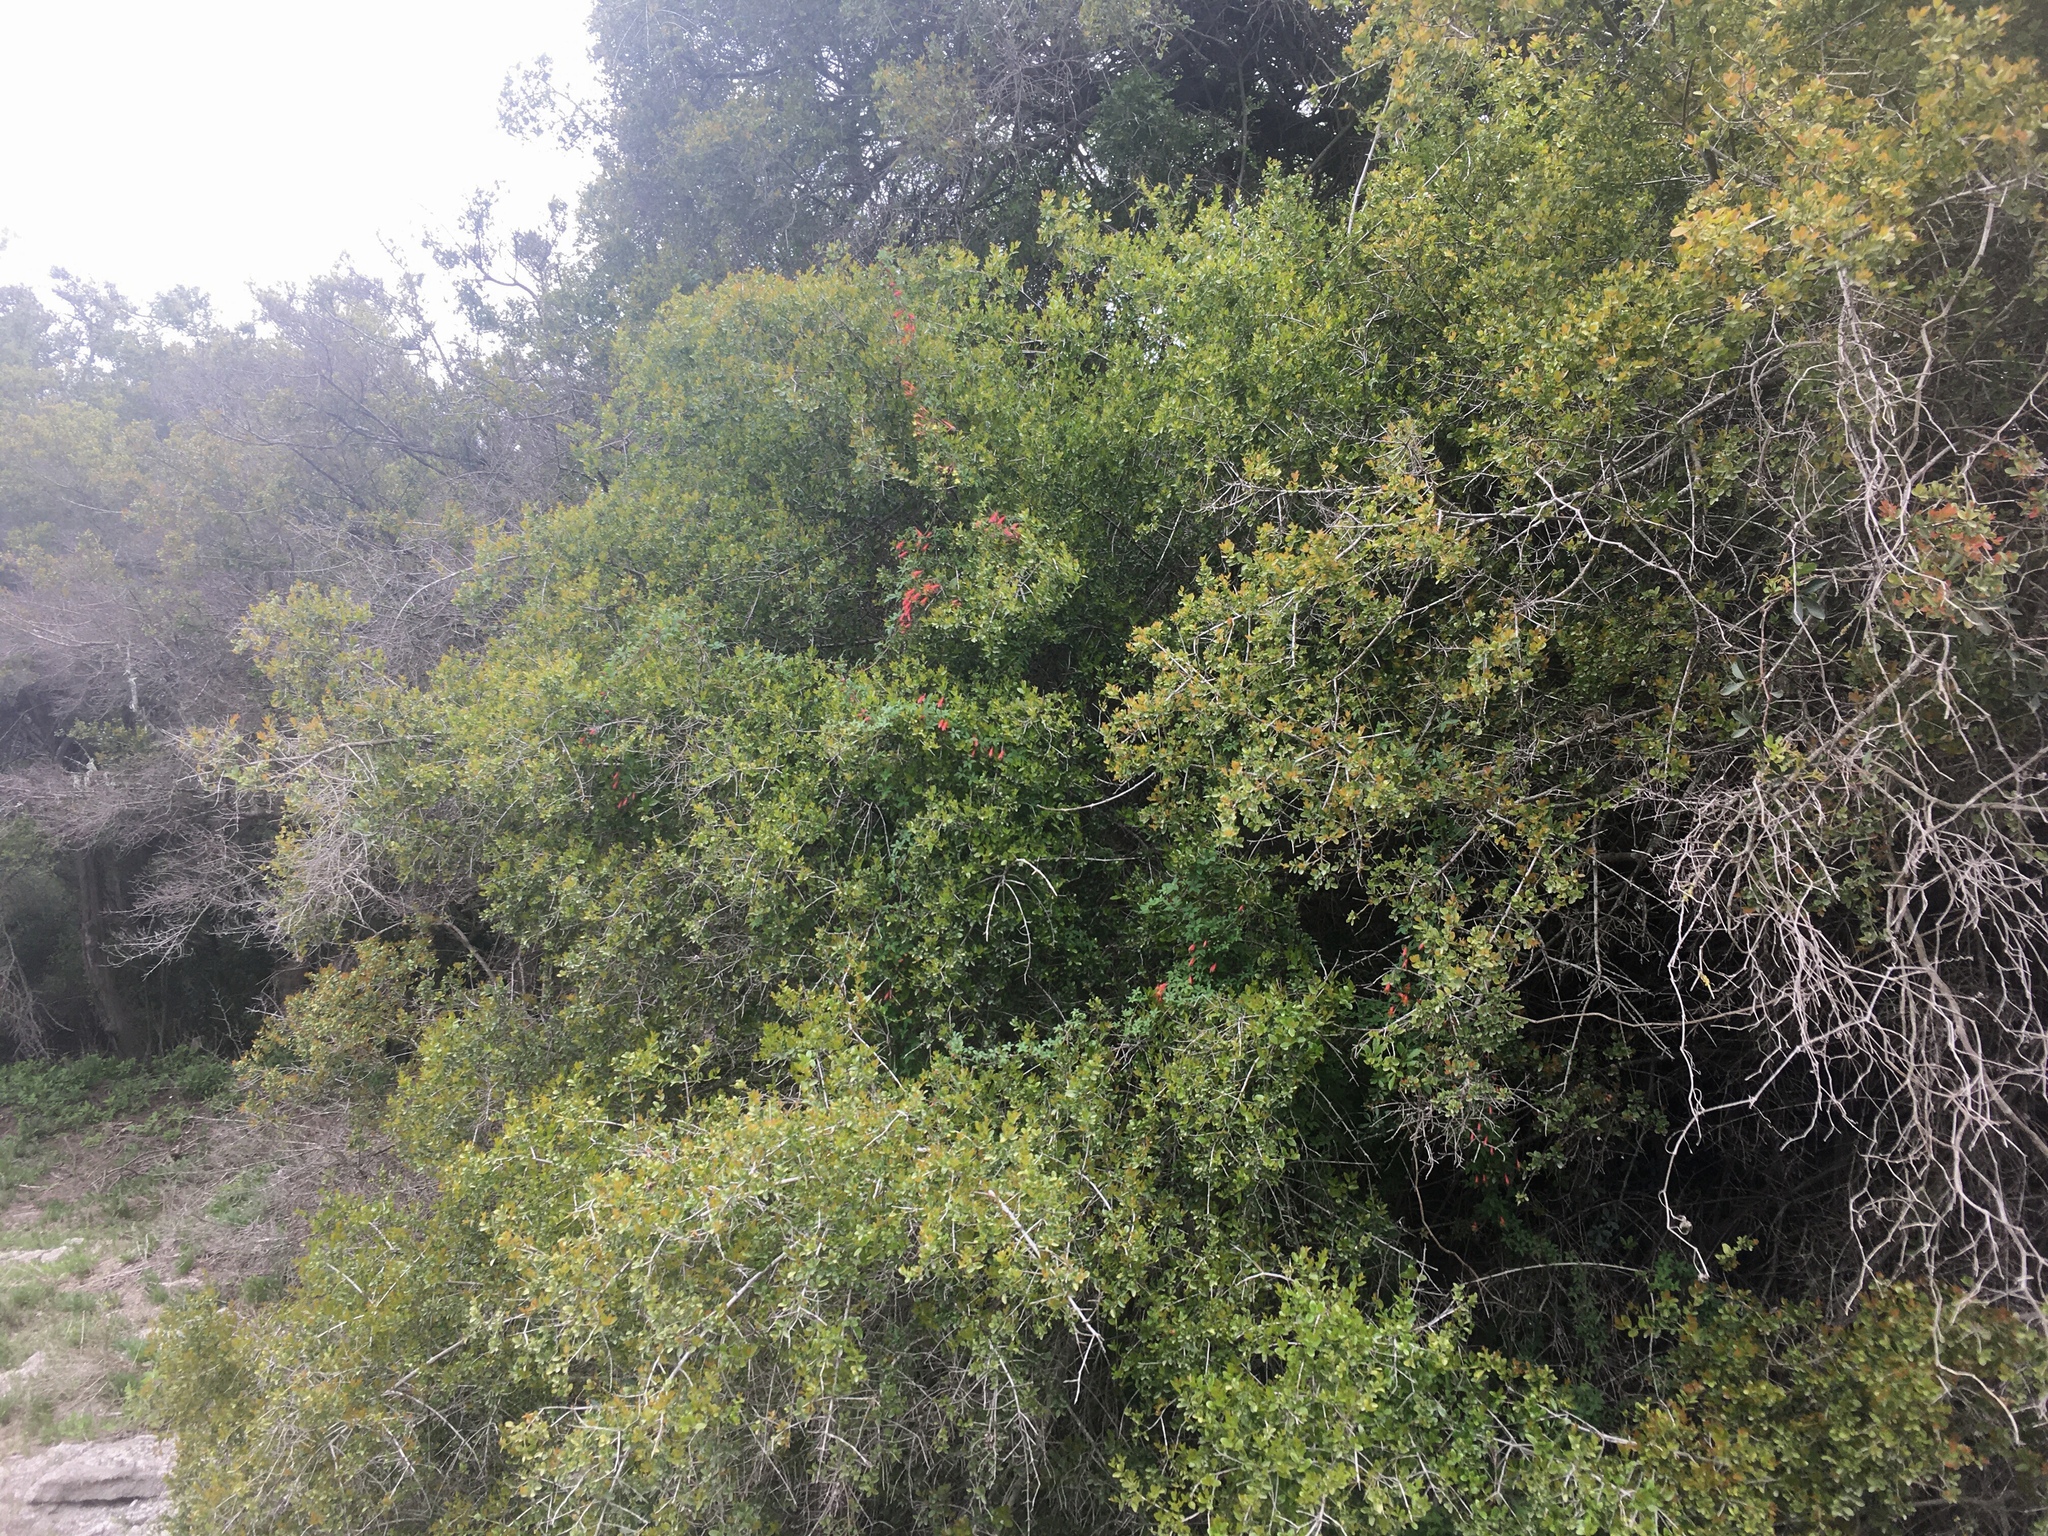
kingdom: Plantae
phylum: Tracheophyta
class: Magnoliopsida
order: Brassicales
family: Tropaeolaceae
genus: Tropaeolum
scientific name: Tropaeolum pentaphyllum
